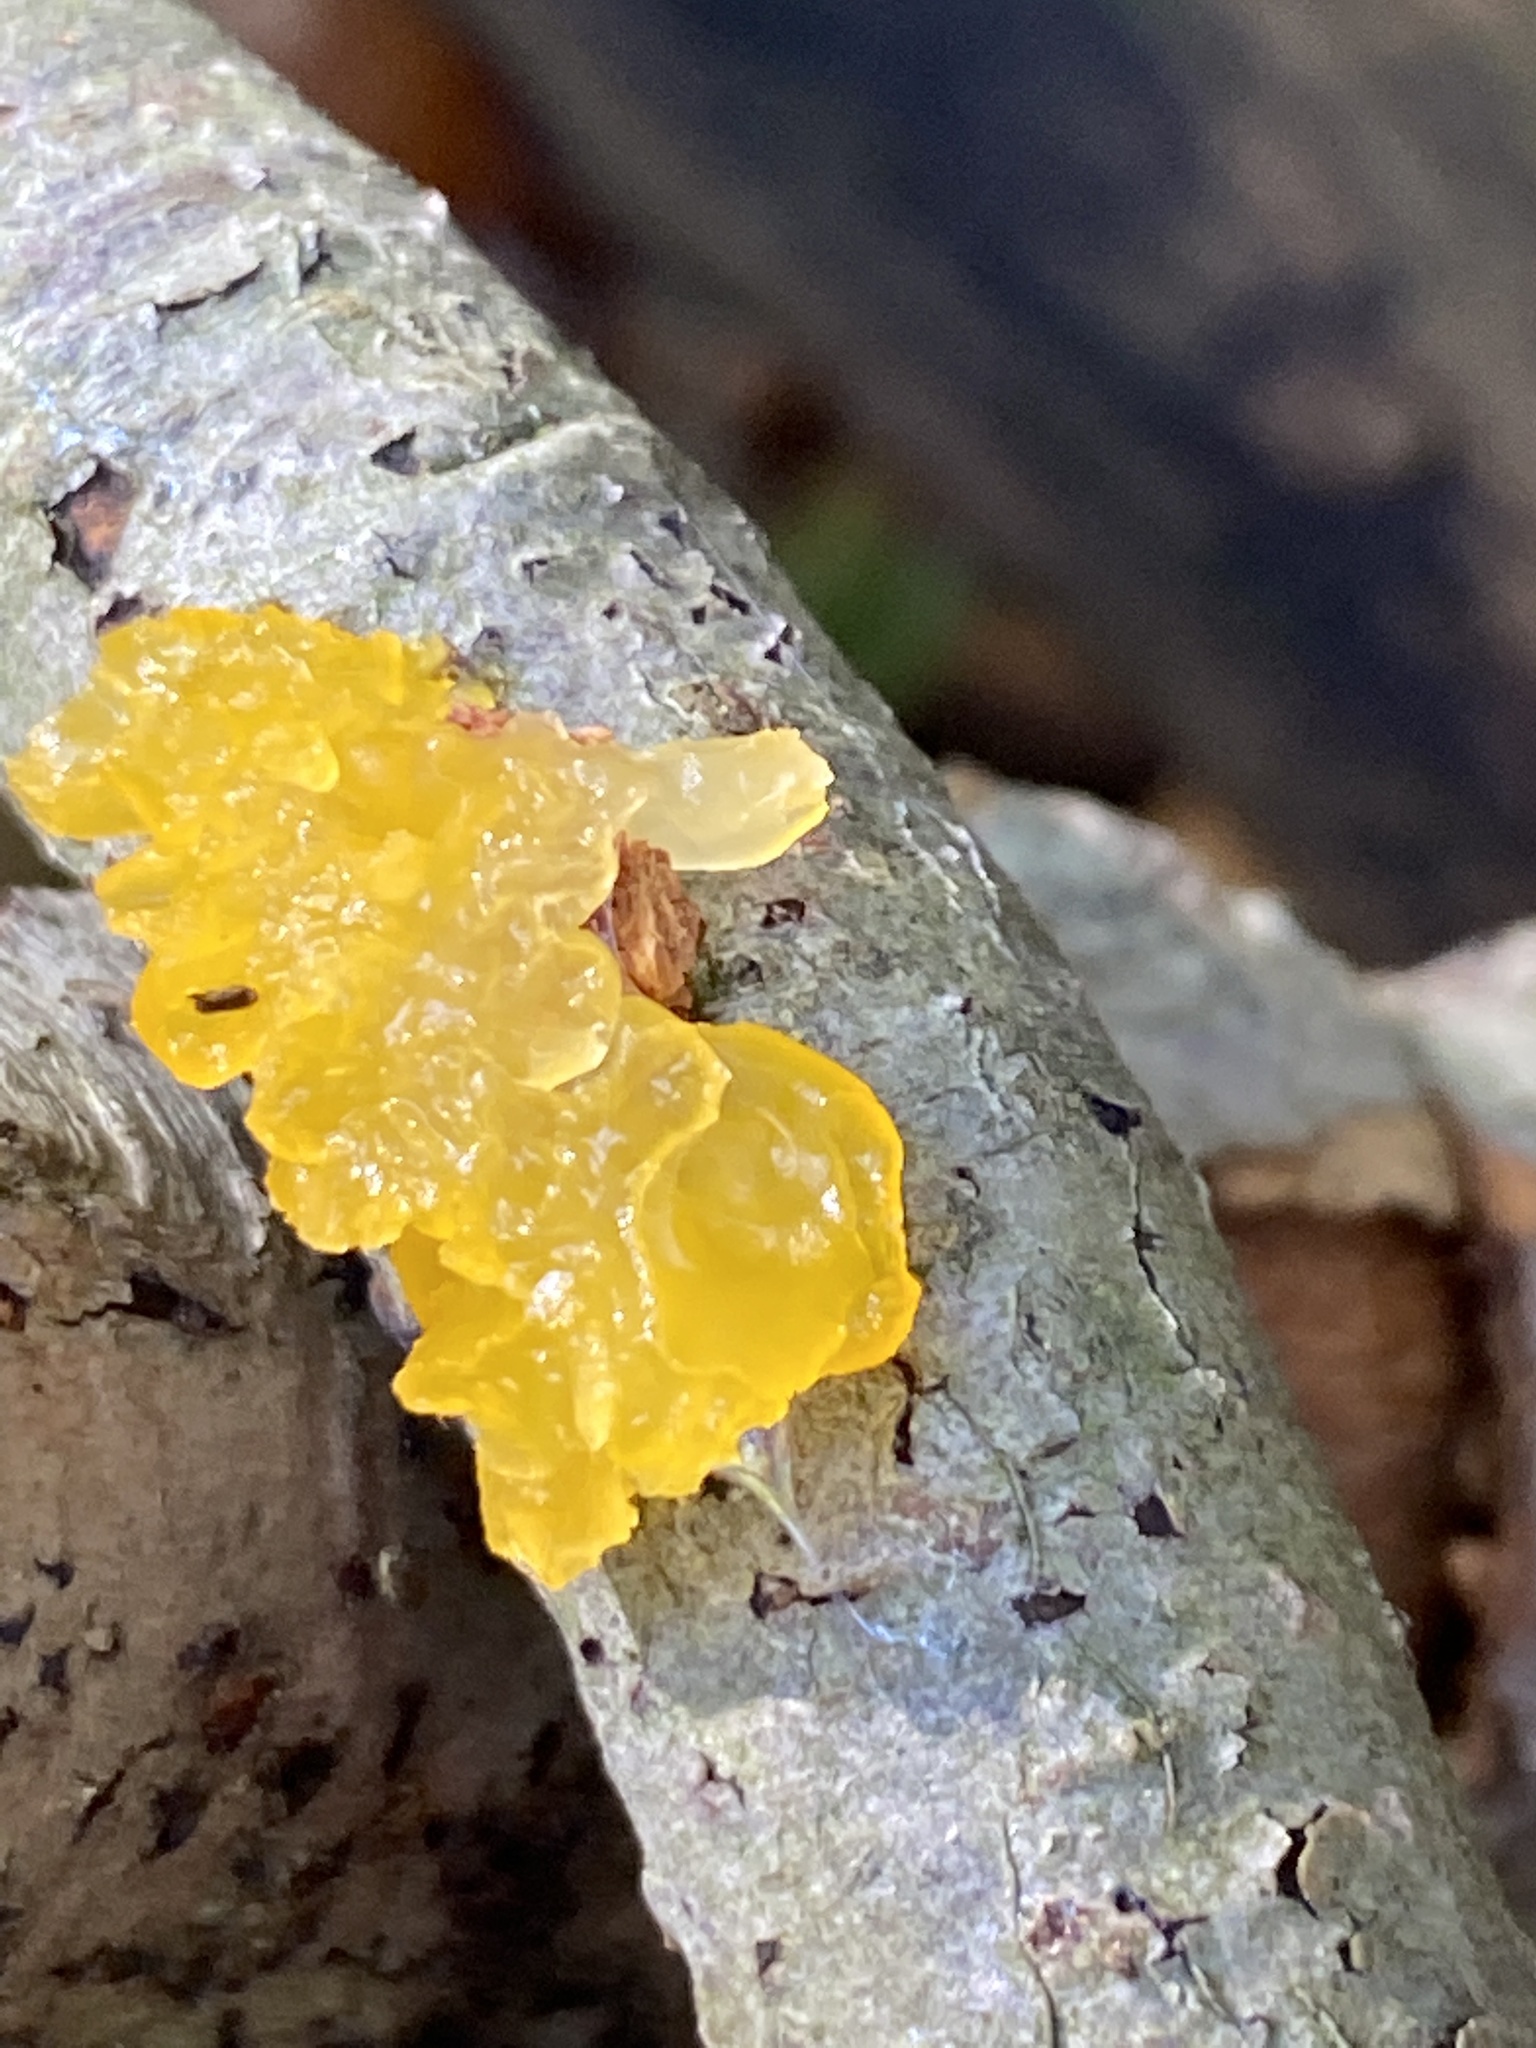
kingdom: Fungi
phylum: Basidiomycota
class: Tremellomycetes
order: Tremellales
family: Tremellaceae
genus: Tremella
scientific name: Tremella mesenterica
